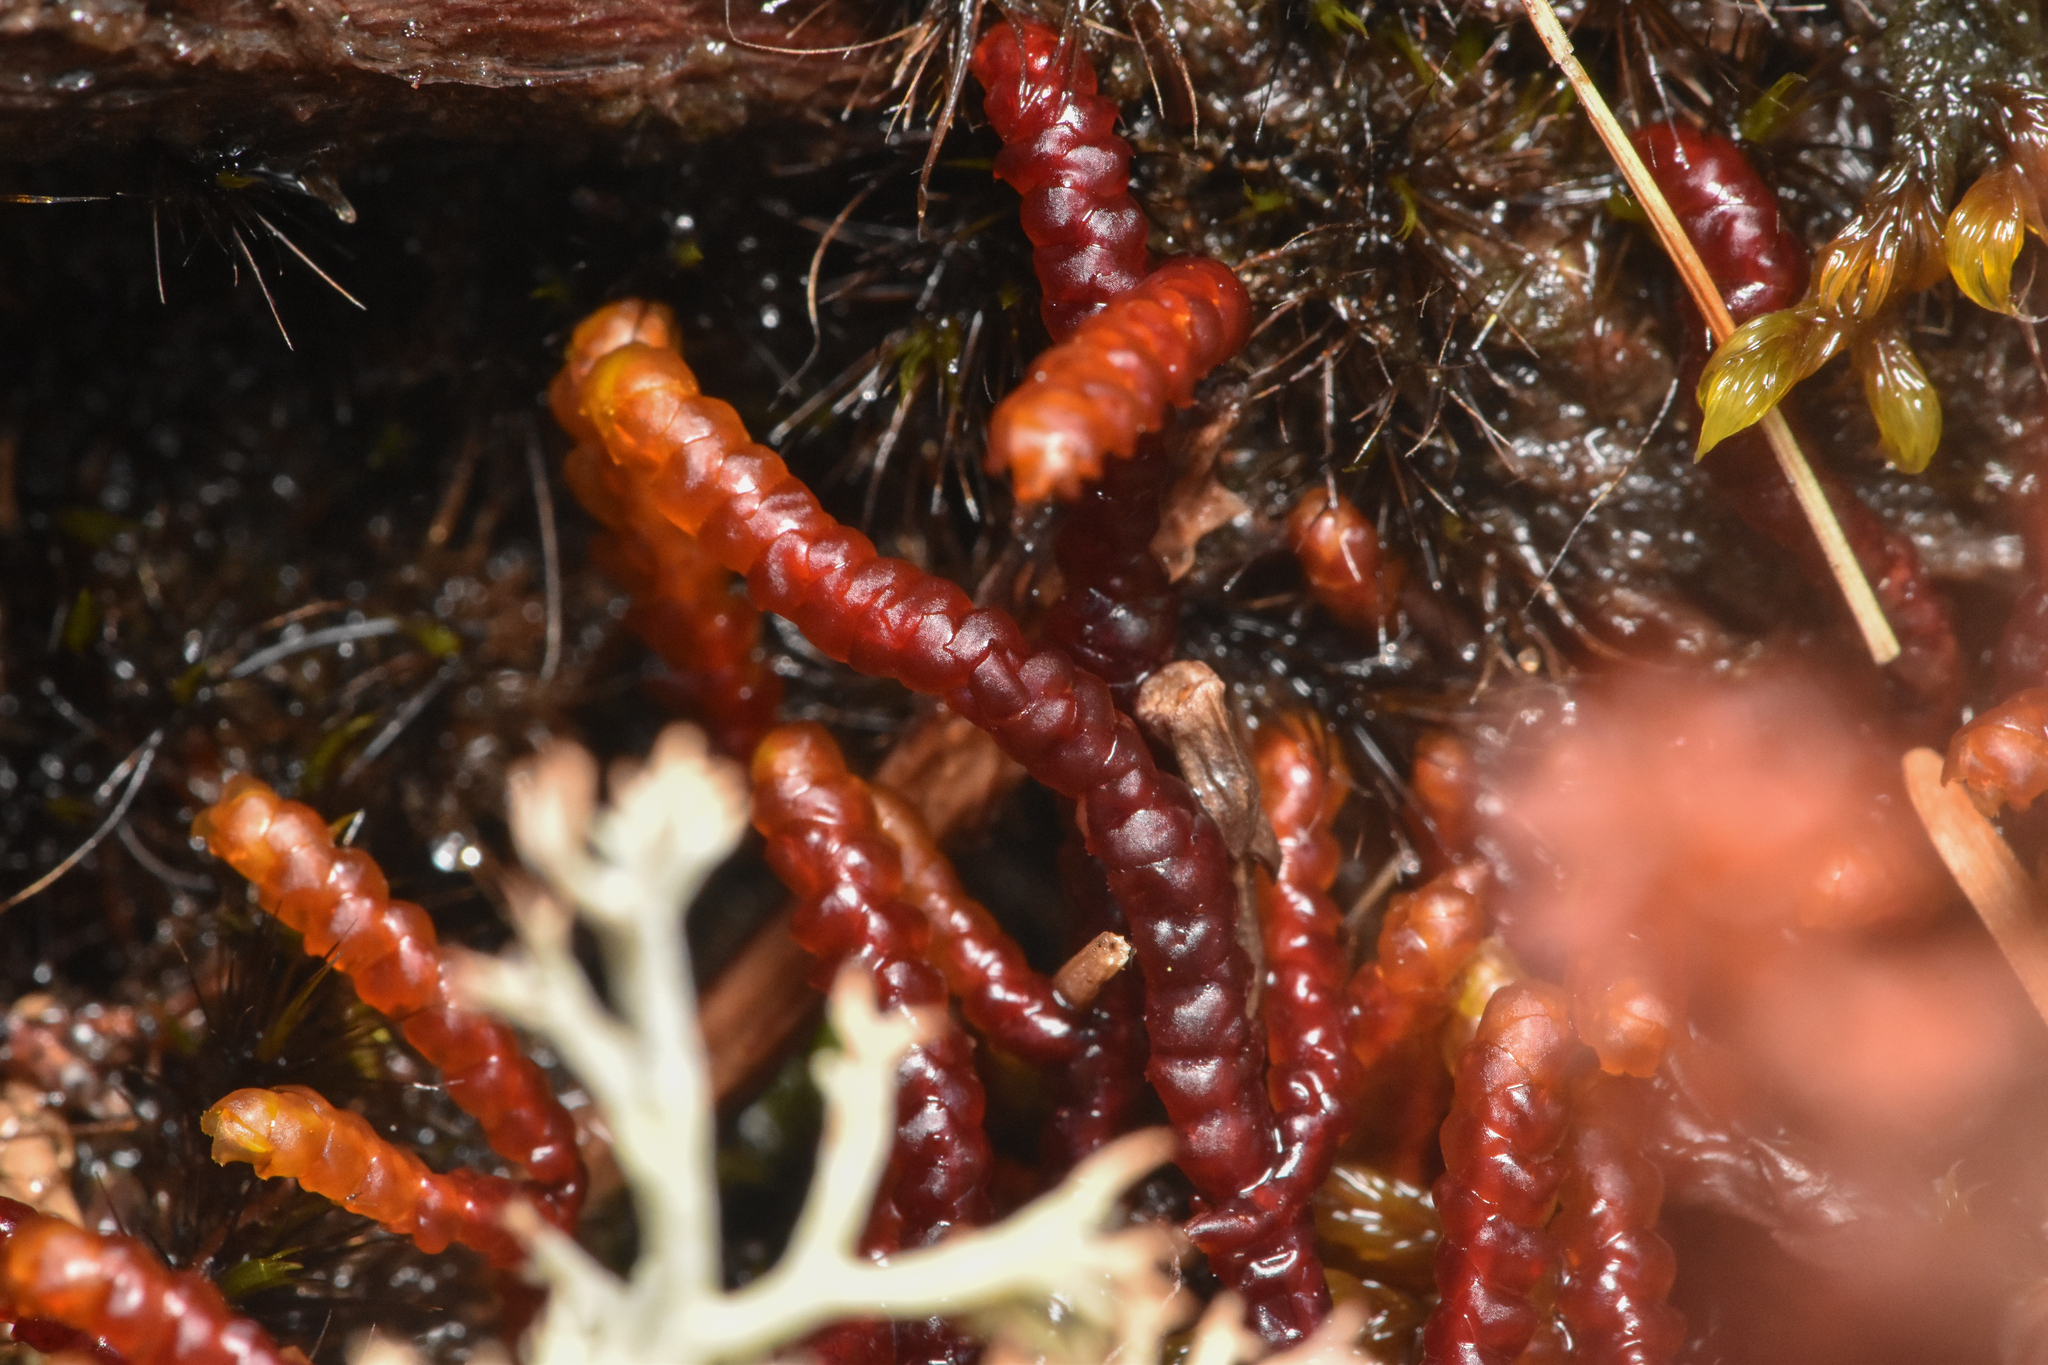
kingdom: Plantae
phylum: Marchantiophyta
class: Jungermanniopsida
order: Pleuroziales
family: Pleuroziaceae
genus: Pleurozia
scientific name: Pleurozia purpurea
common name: Purple spoonwort
